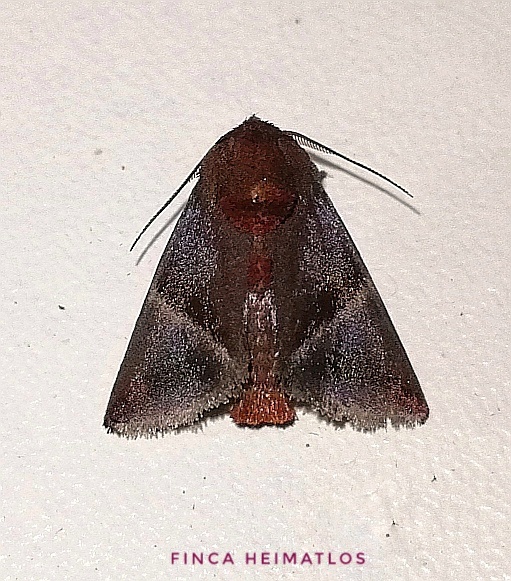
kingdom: Animalia
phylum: Arthropoda
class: Insecta
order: Lepidoptera
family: Limacodidae
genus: Tanadema
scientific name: Tanadema incongrua
